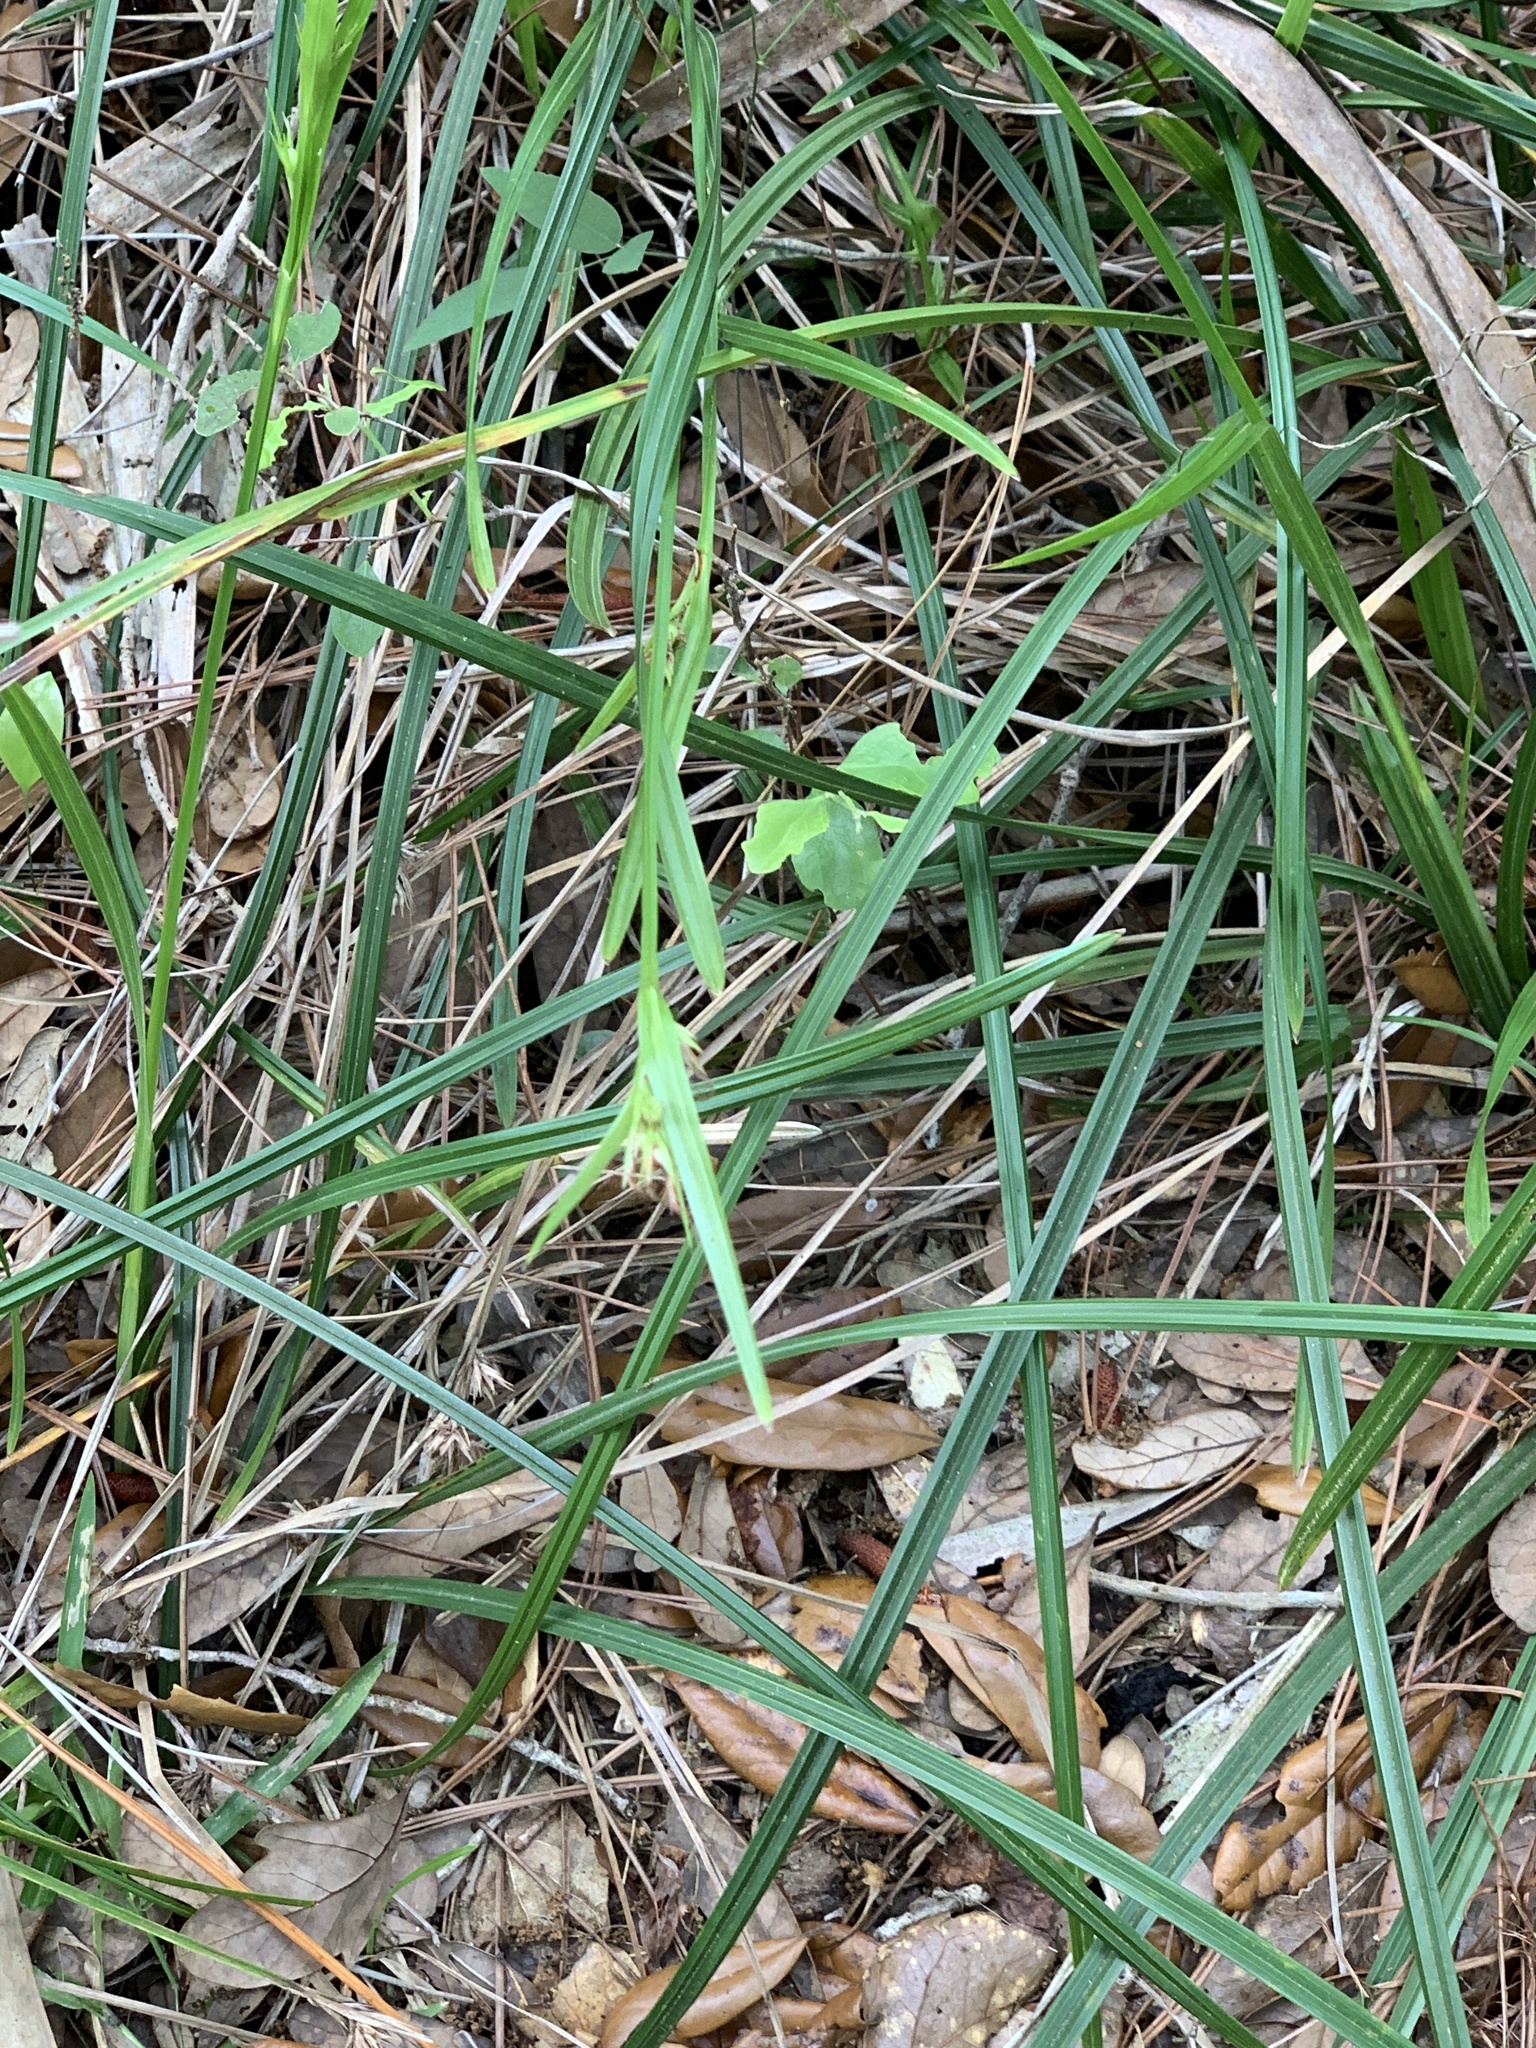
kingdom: Plantae
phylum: Tracheophyta
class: Liliopsida
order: Poales
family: Cyperaceae
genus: Scleria
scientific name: Scleria triglomerata
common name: Whip nutrush
